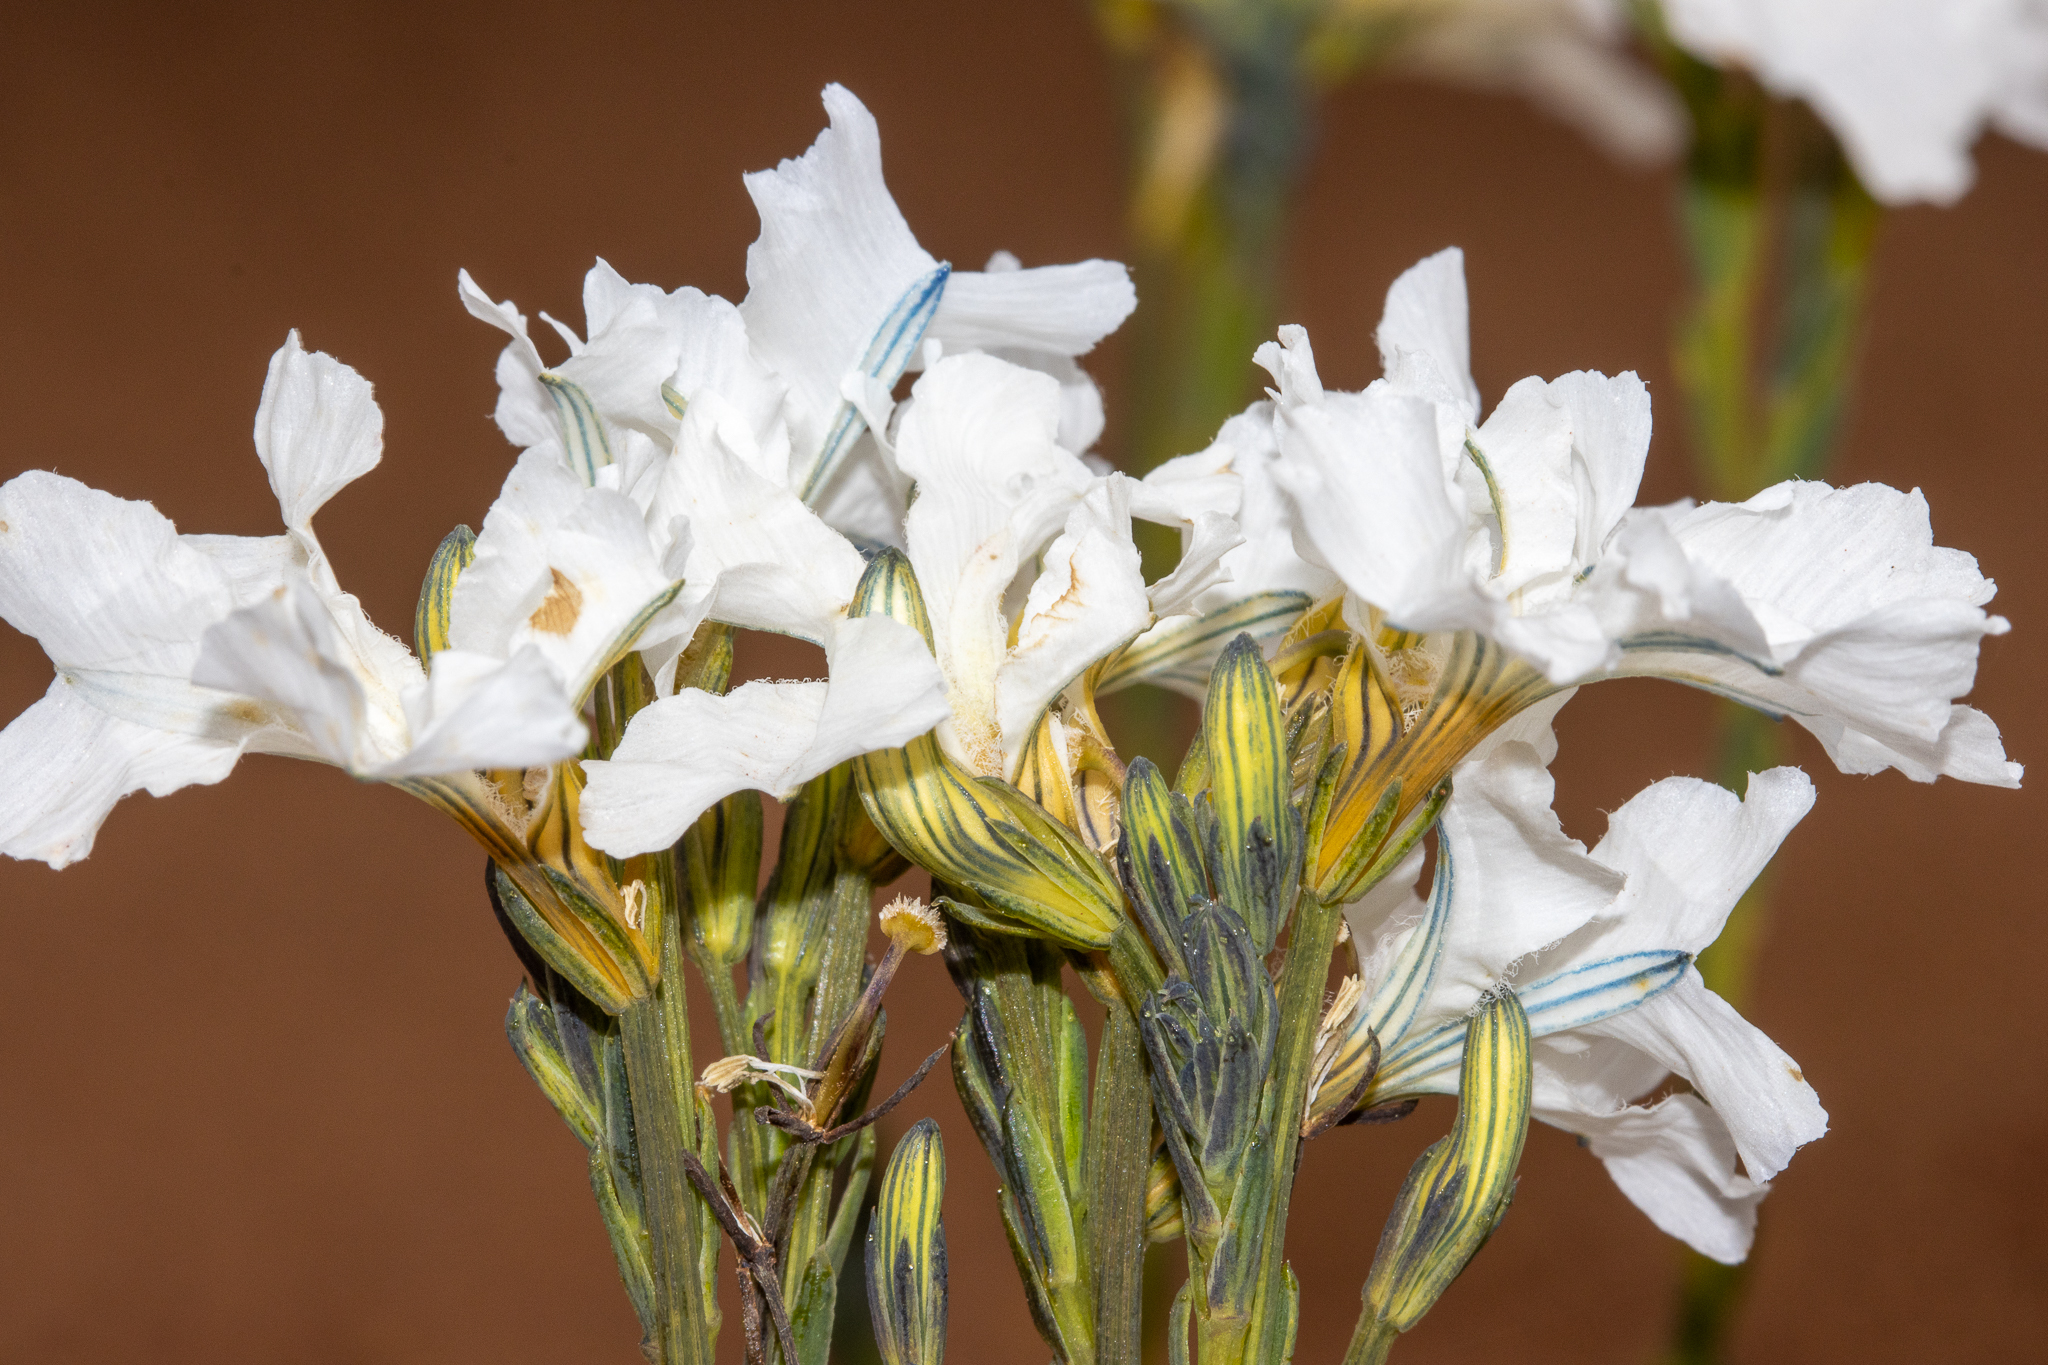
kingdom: Plantae
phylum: Tracheophyta
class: Magnoliopsida
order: Asterales
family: Goodeniaceae
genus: Lechenaultia
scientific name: Lechenaultia galactites
